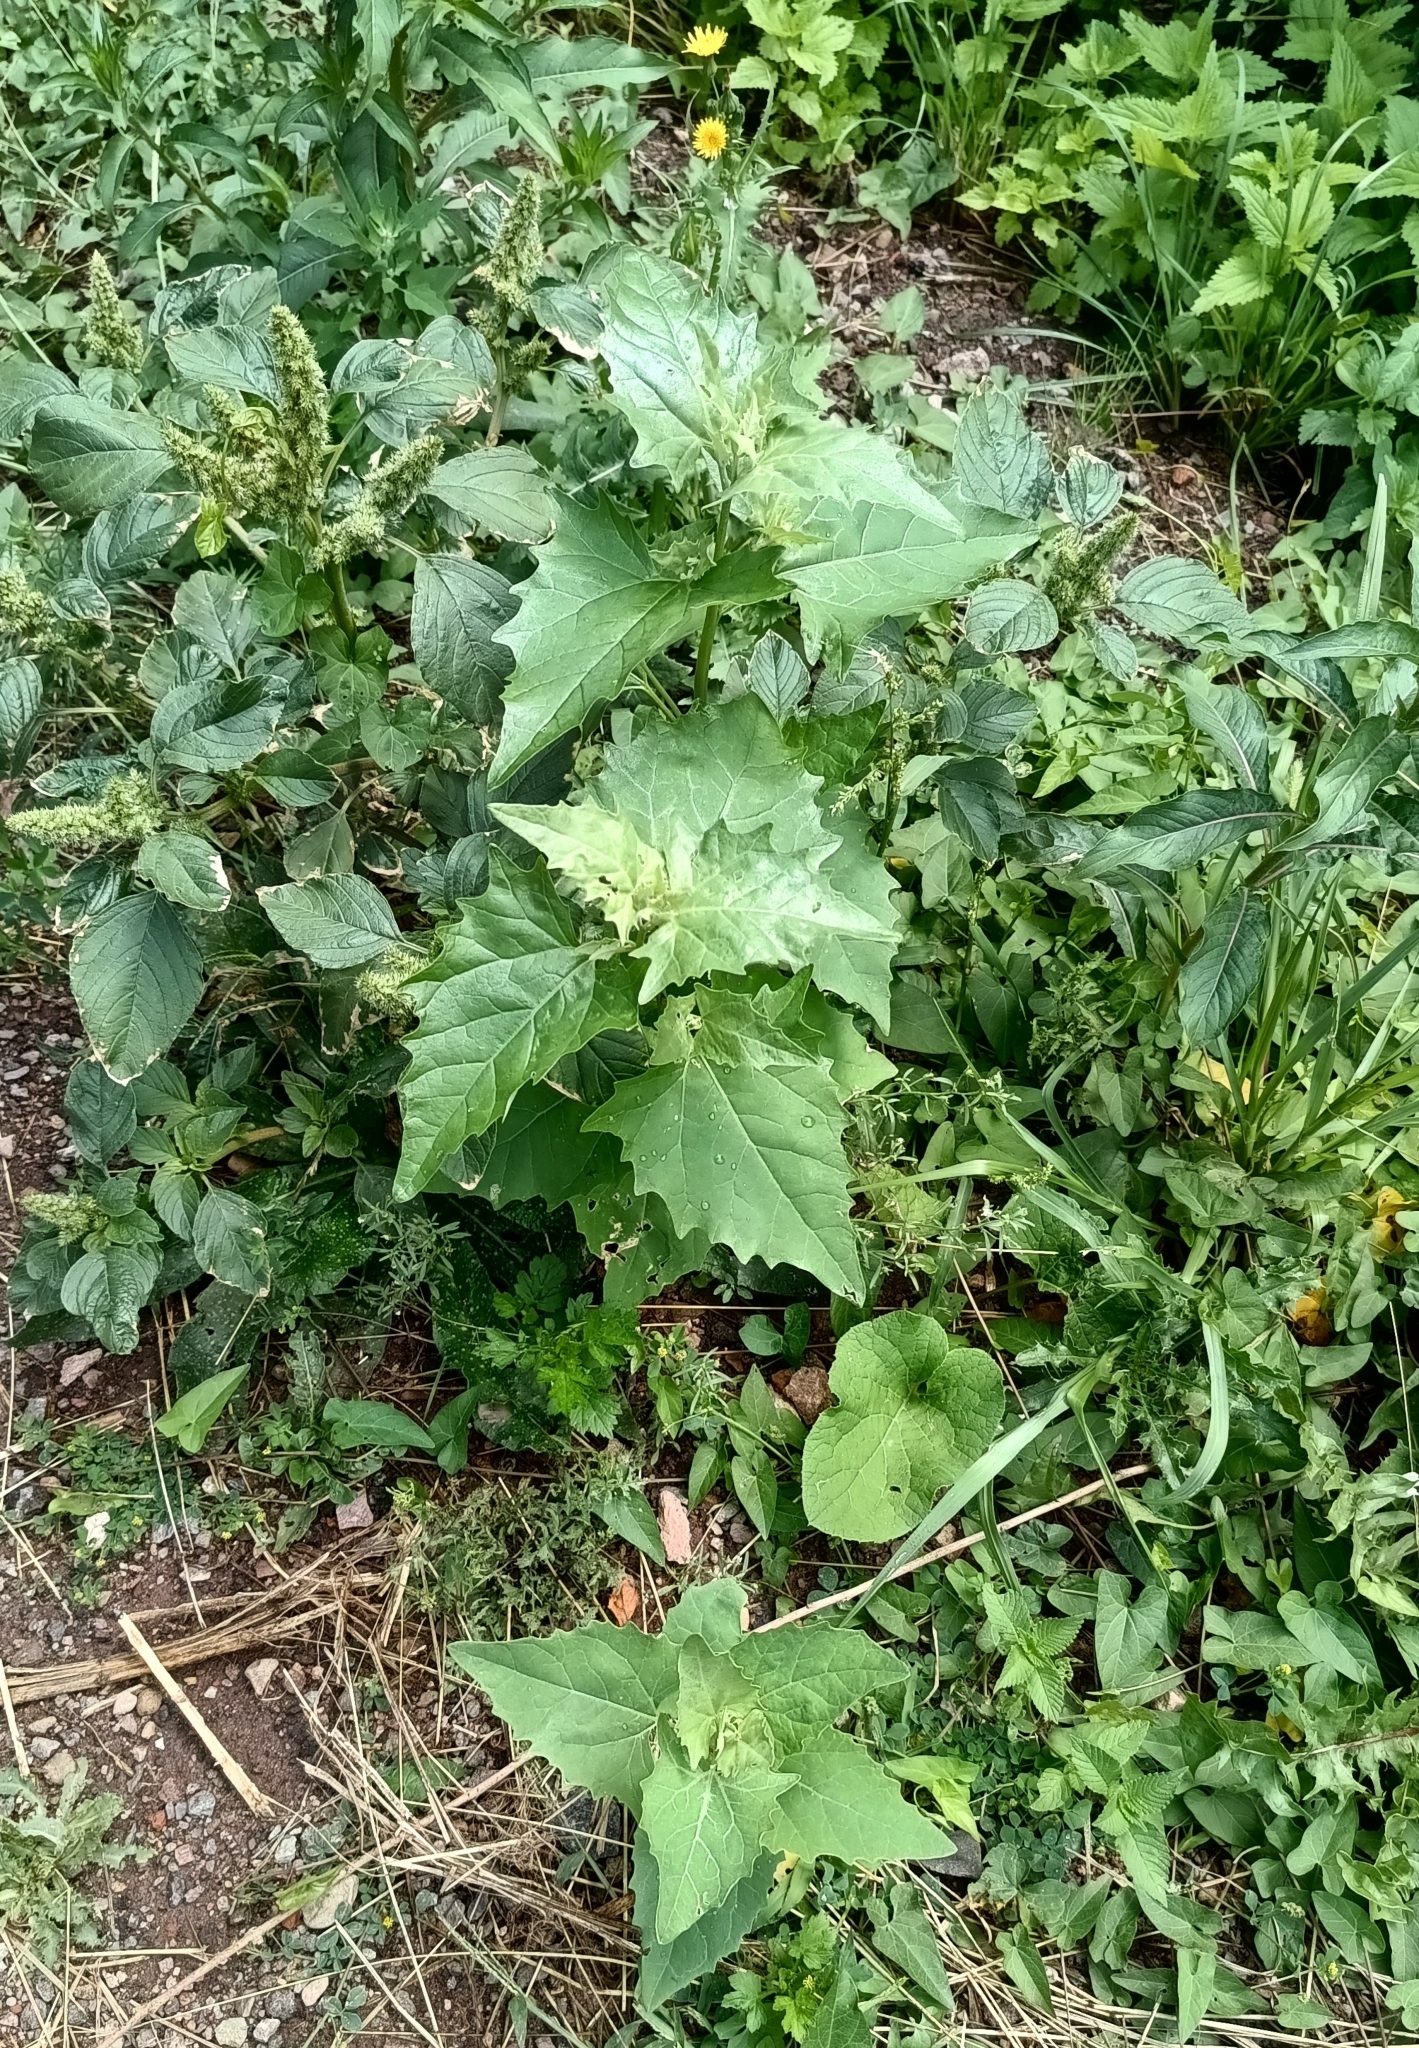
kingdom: Plantae
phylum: Tracheophyta
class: Magnoliopsida
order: Caryophyllales
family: Amaranthaceae
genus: Atriplex
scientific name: Atriplex sagittata
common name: Purple orache
